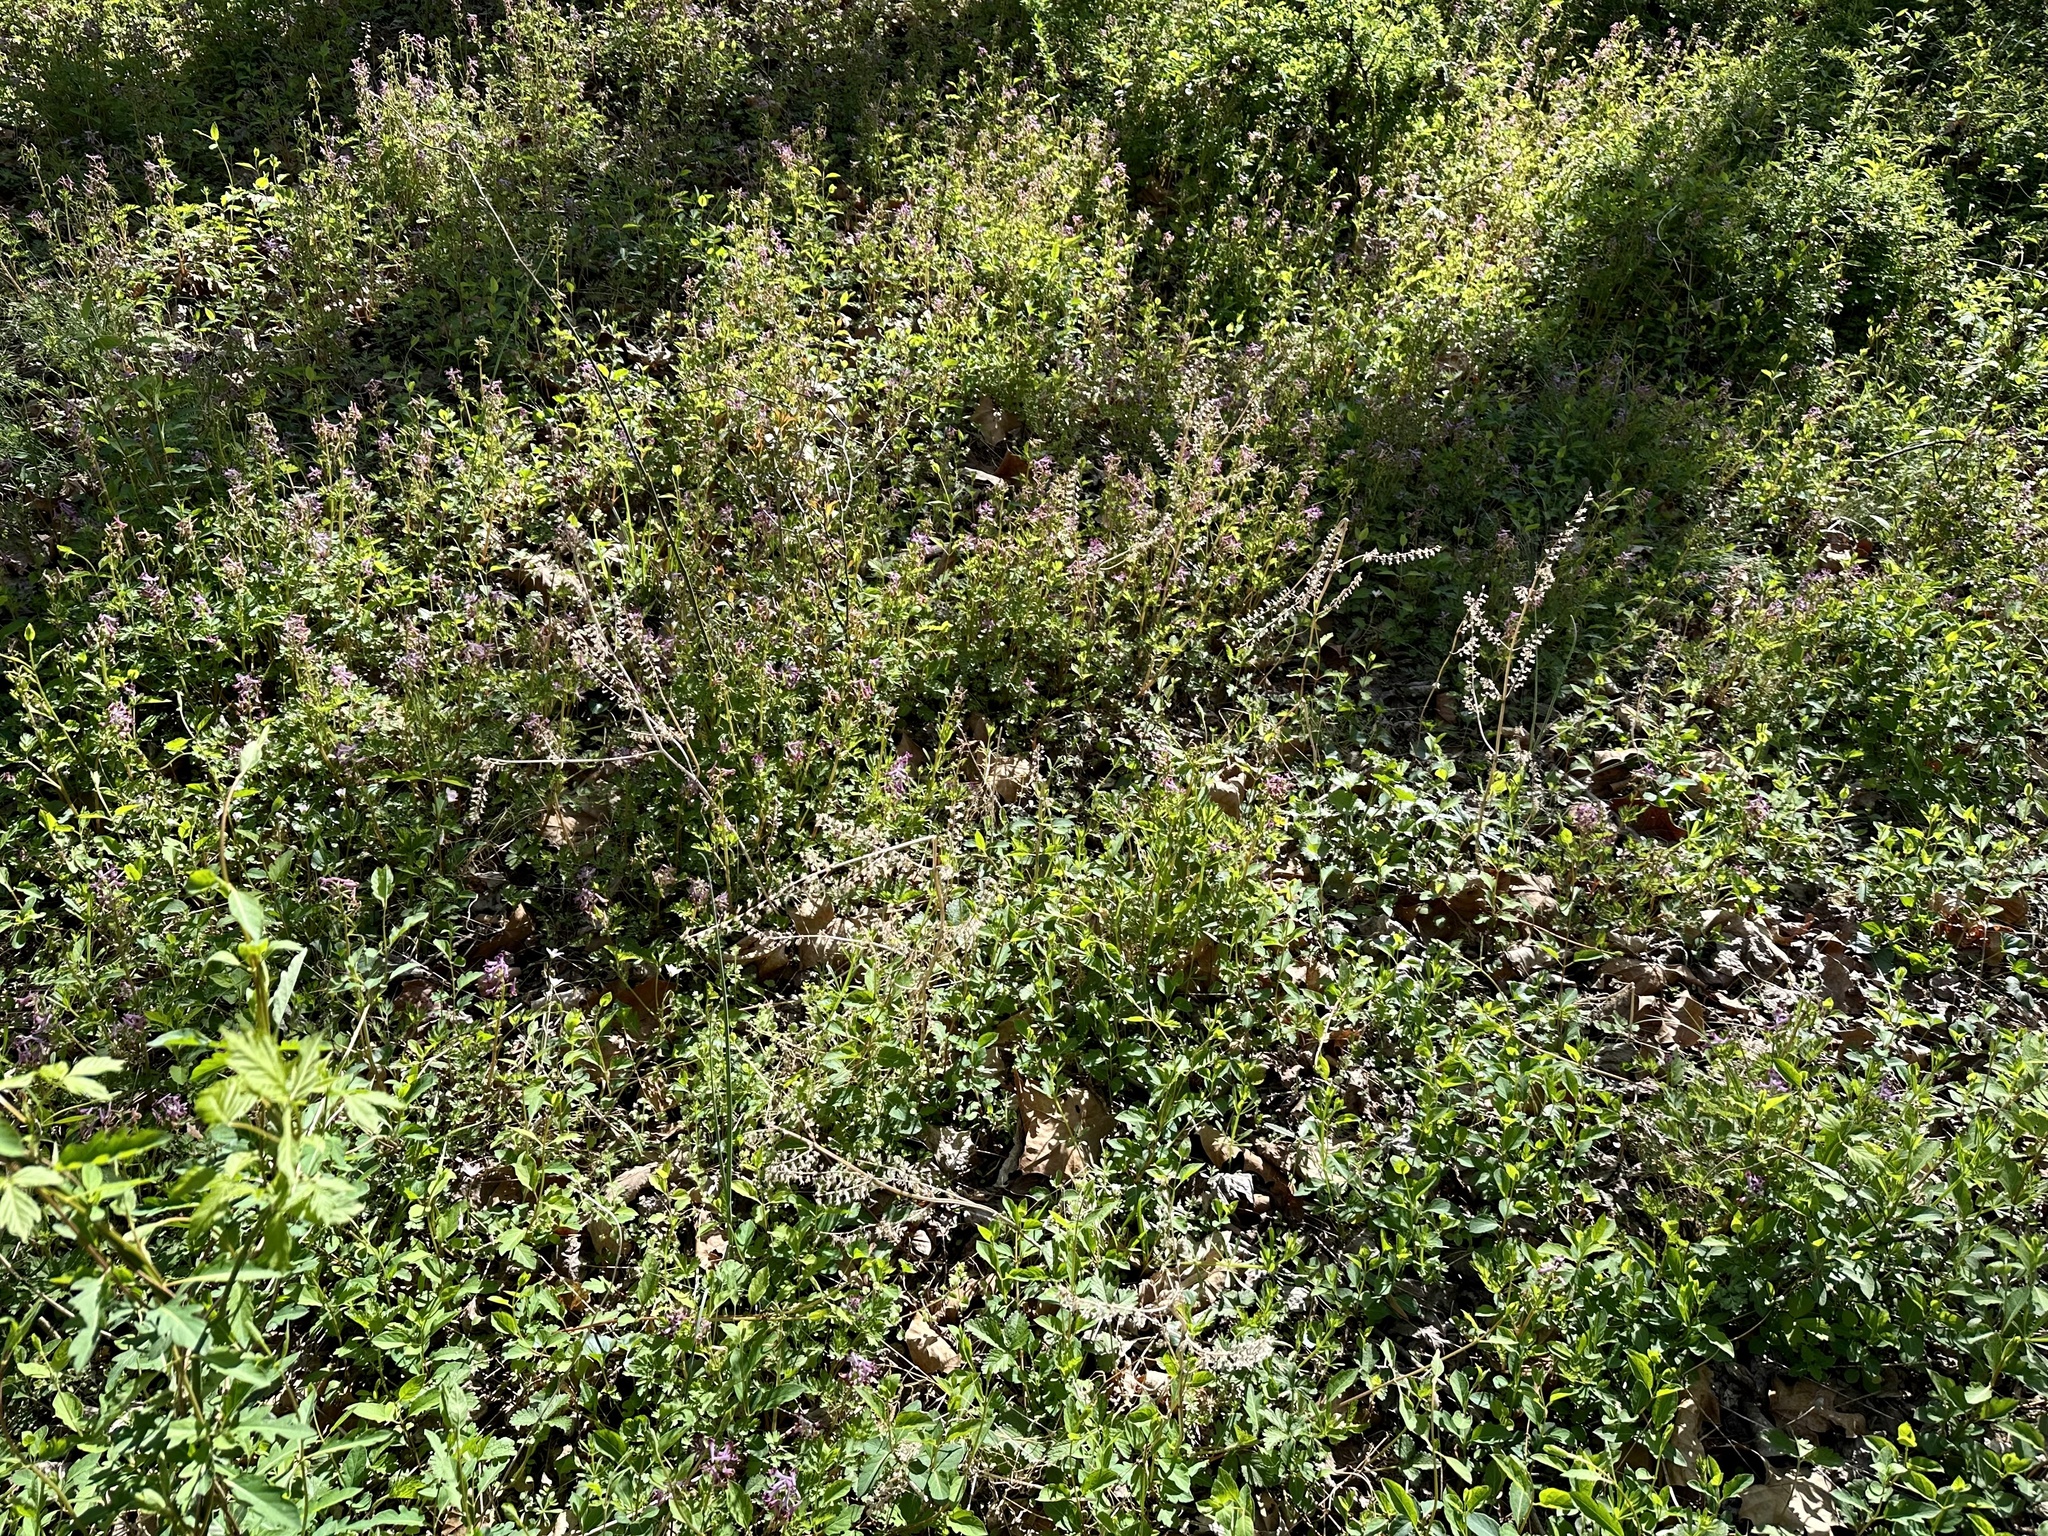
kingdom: Plantae
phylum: Tracheophyta
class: Magnoliopsida
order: Lamiales
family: Lamiaceae
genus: Perilla
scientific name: Perilla frutescens
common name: Perilla
